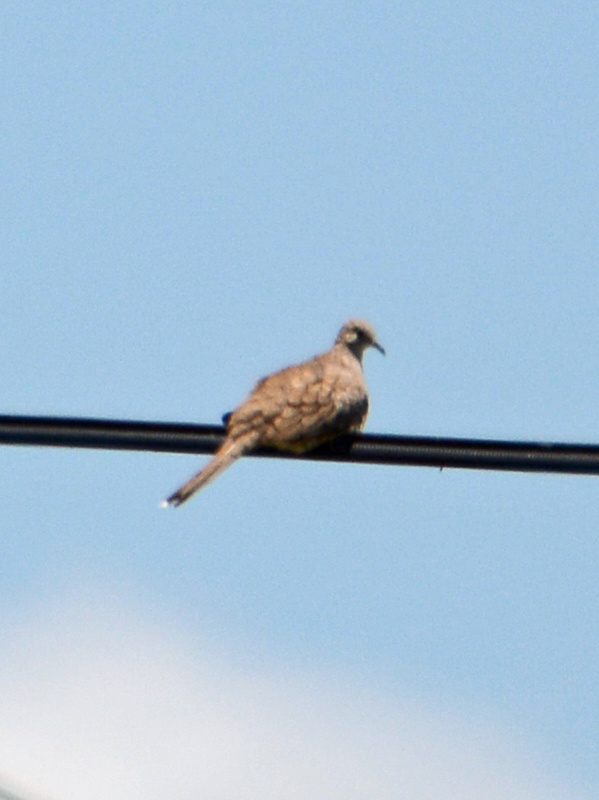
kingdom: Animalia
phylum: Chordata
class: Aves
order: Columbiformes
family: Columbidae
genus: Columbina
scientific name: Columbina inca
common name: Inca dove
